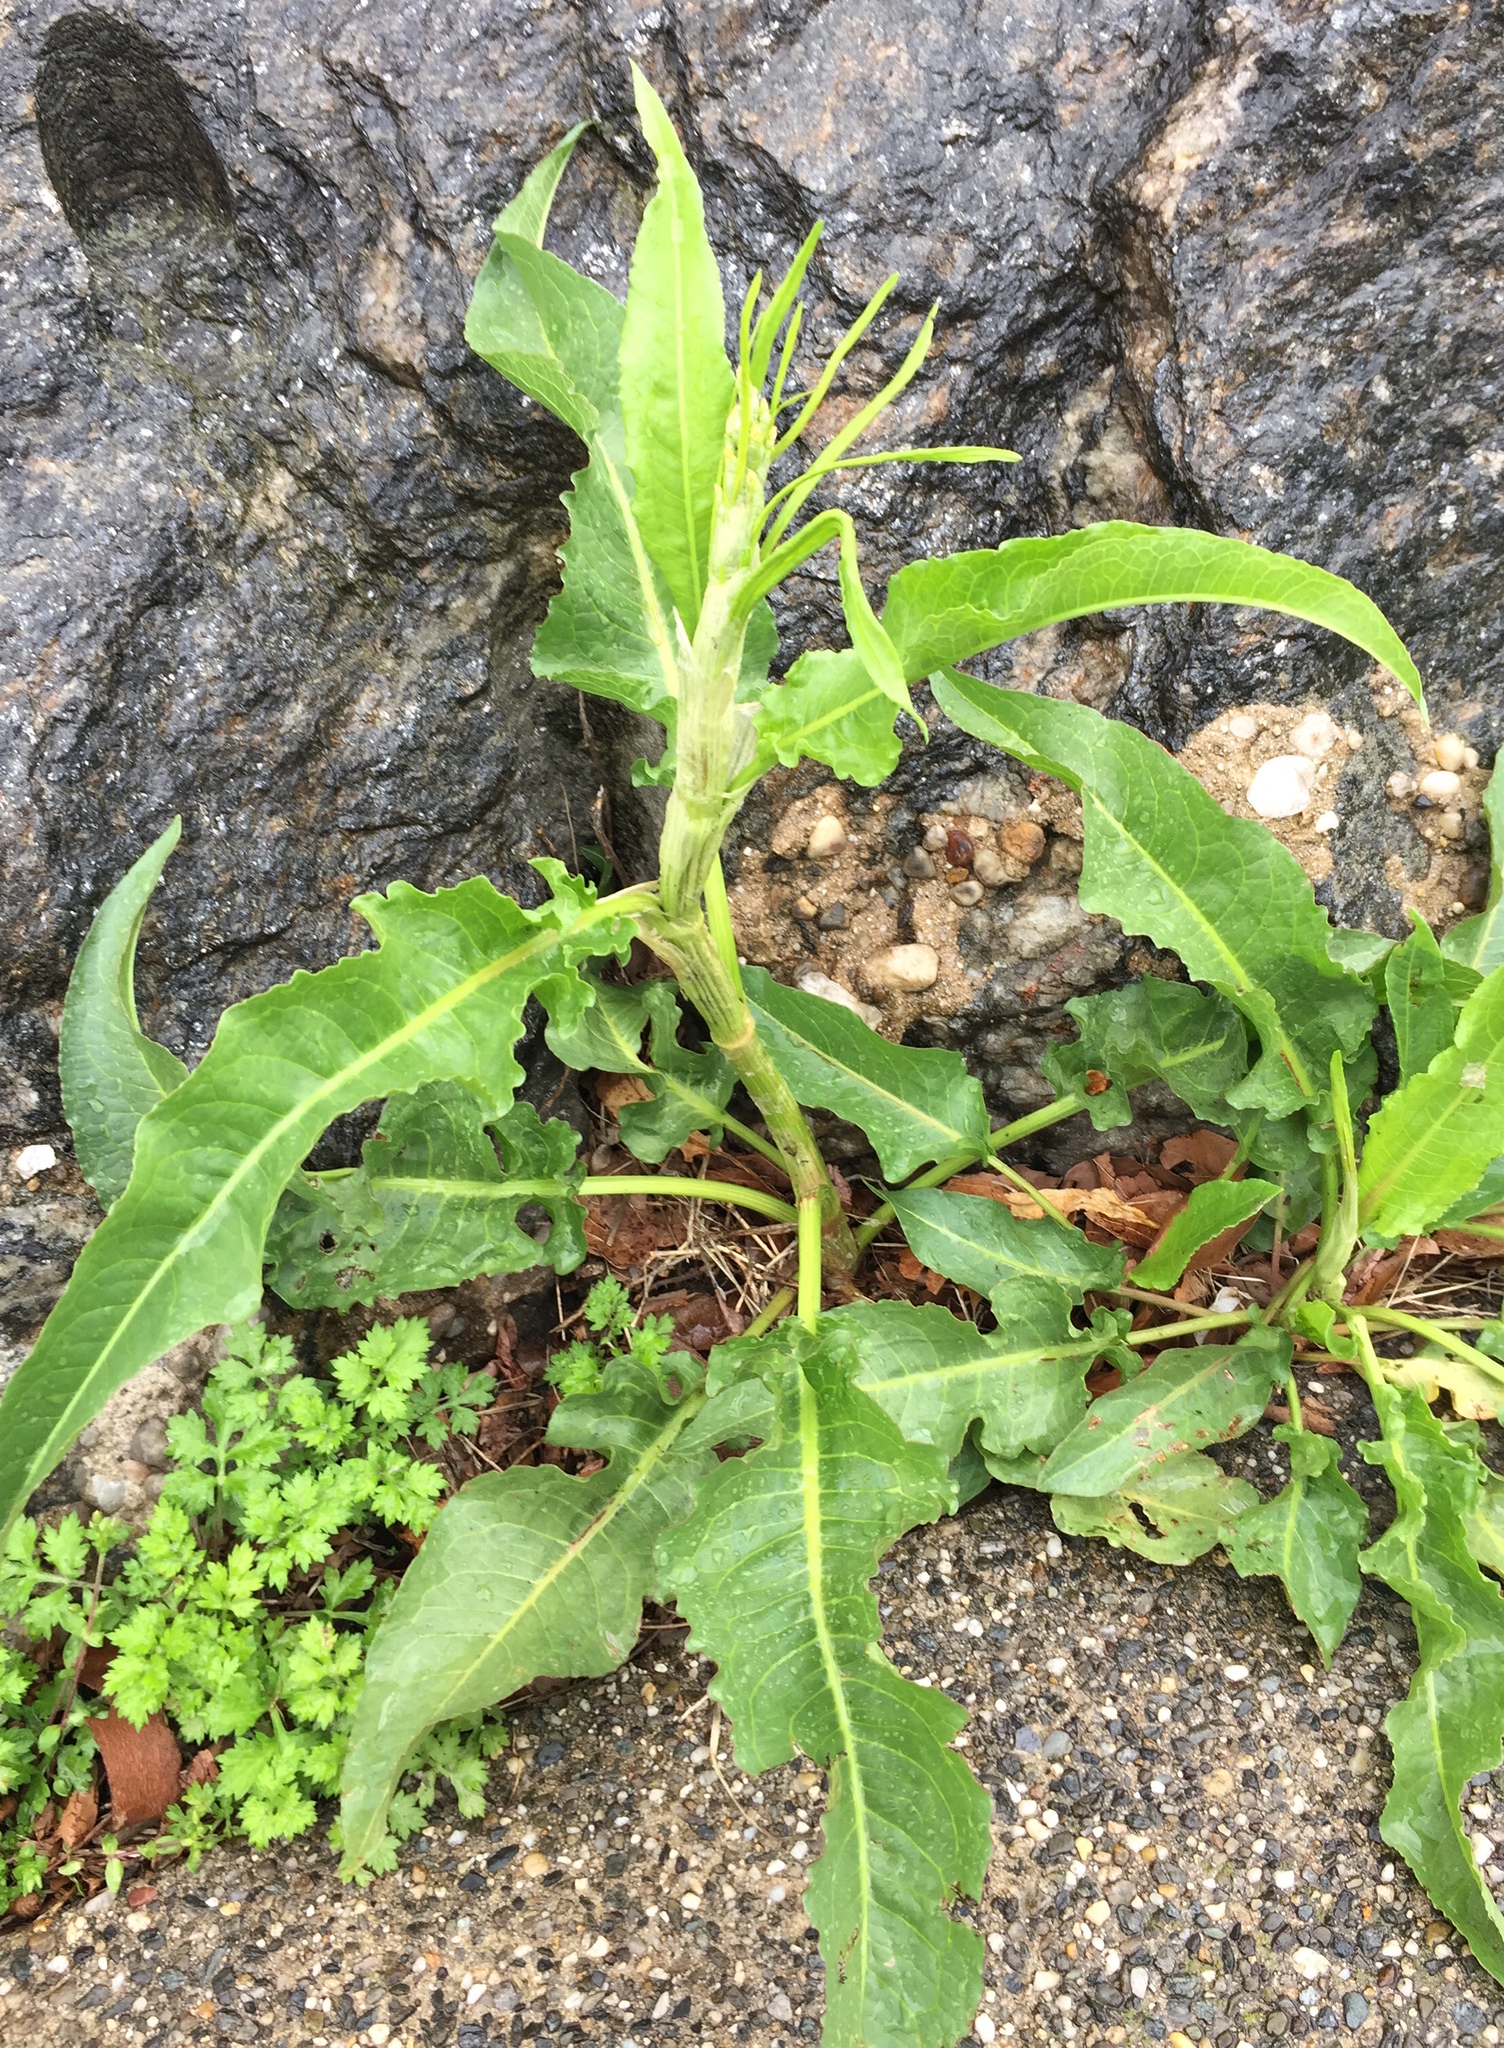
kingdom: Plantae
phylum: Tracheophyta
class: Magnoliopsida
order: Caryophyllales
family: Polygonaceae
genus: Rumex
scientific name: Rumex crispus
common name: Curled dock
